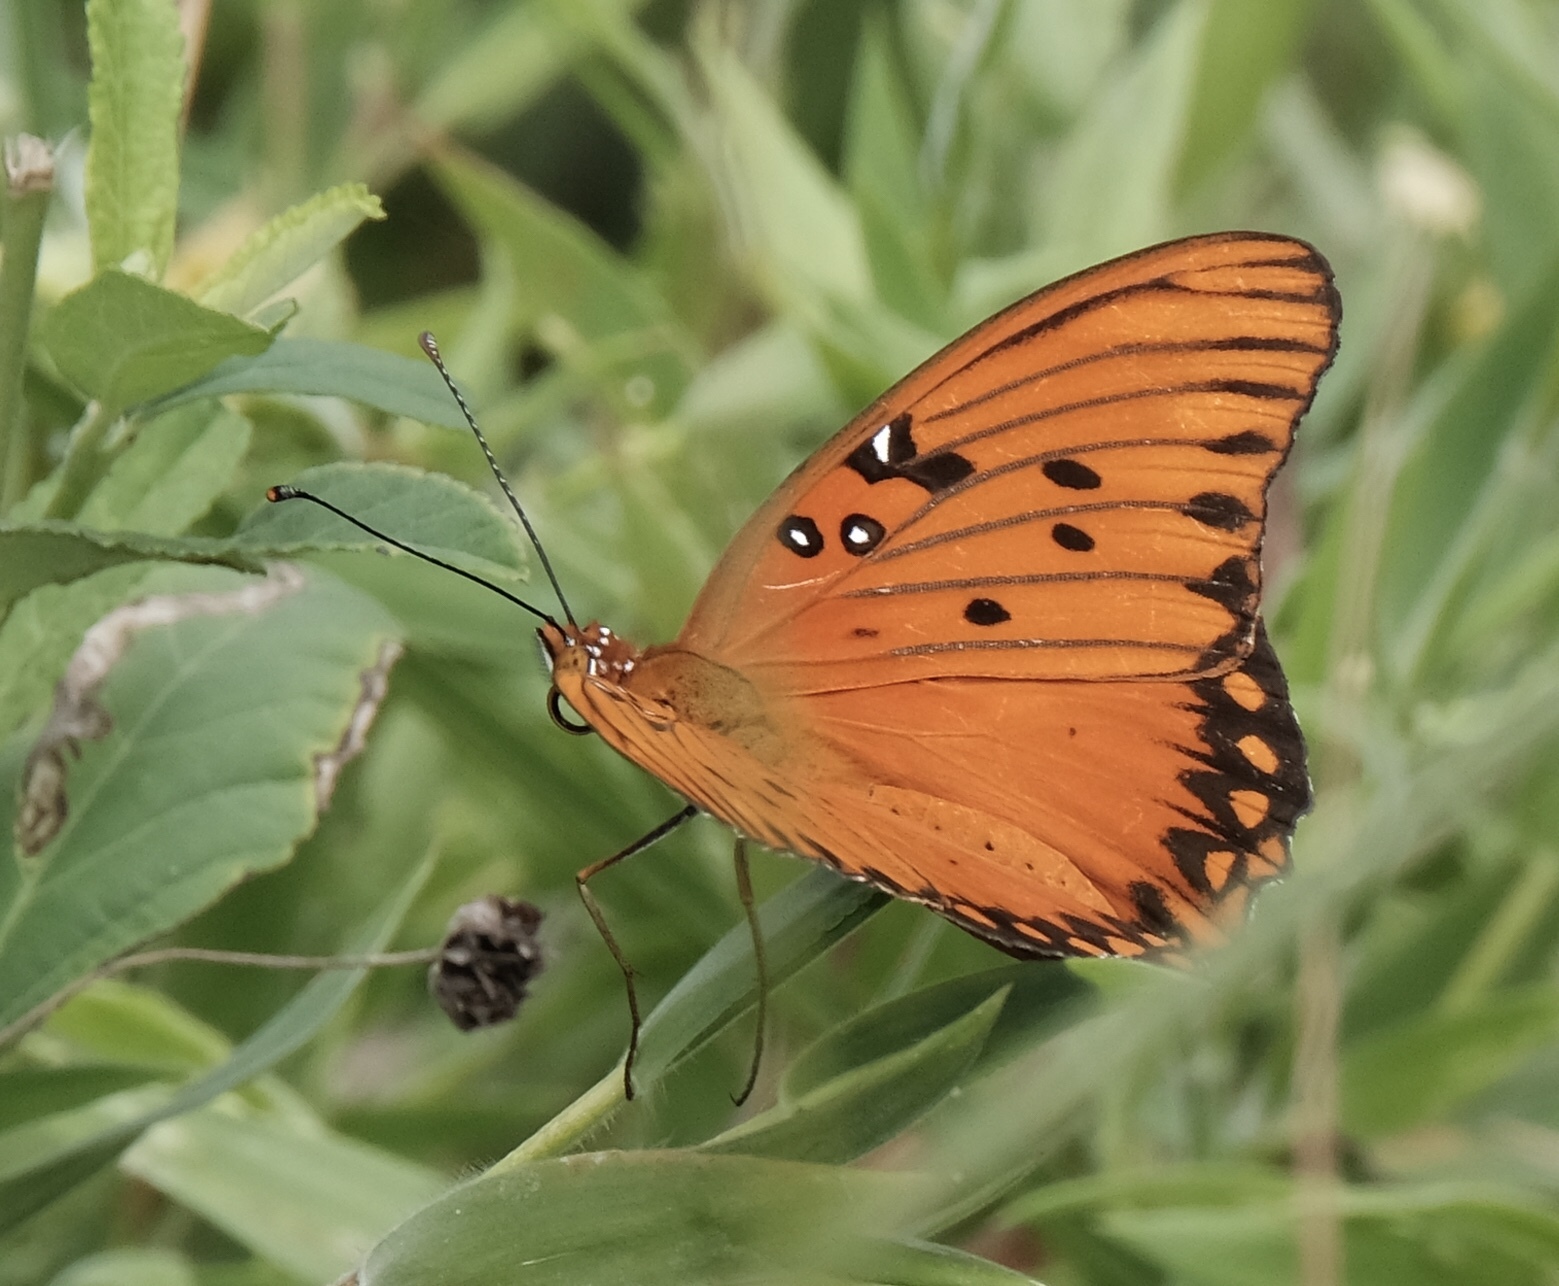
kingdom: Animalia
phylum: Arthropoda
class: Insecta
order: Lepidoptera
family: Nymphalidae
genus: Dione
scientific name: Dione vanillae
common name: Gulf fritillary
